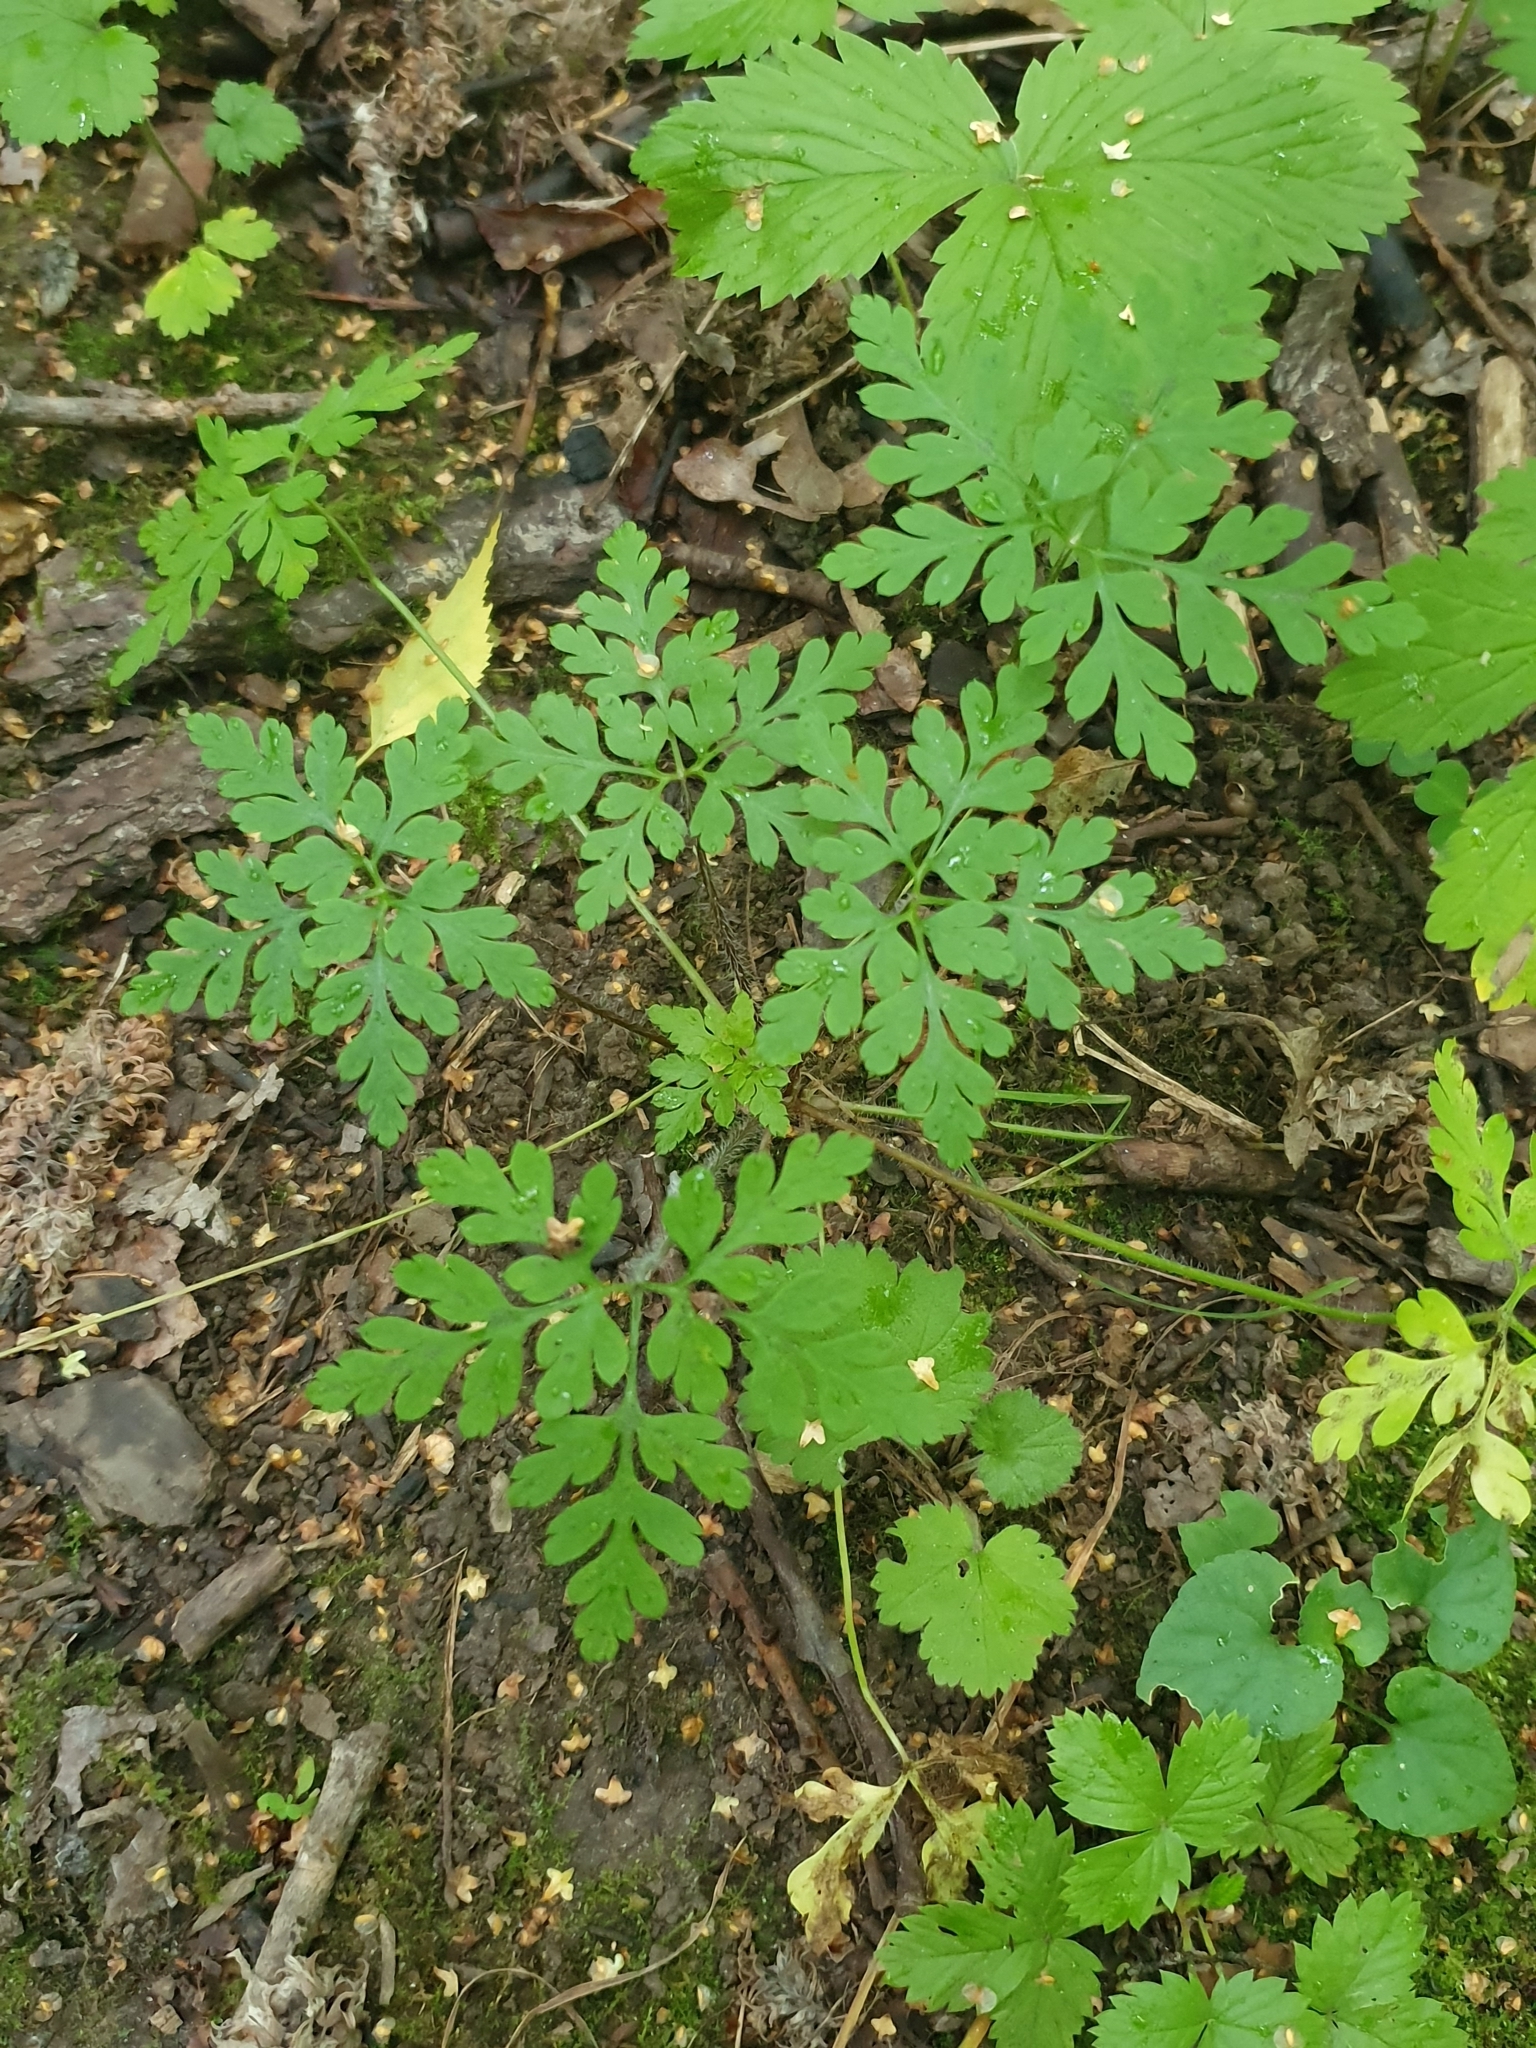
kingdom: Plantae
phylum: Tracheophyta
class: Magnoliopsida
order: Geraniales
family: Geraniaceae
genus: Geranium
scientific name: Geranium robertianum
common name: Herb-robert
